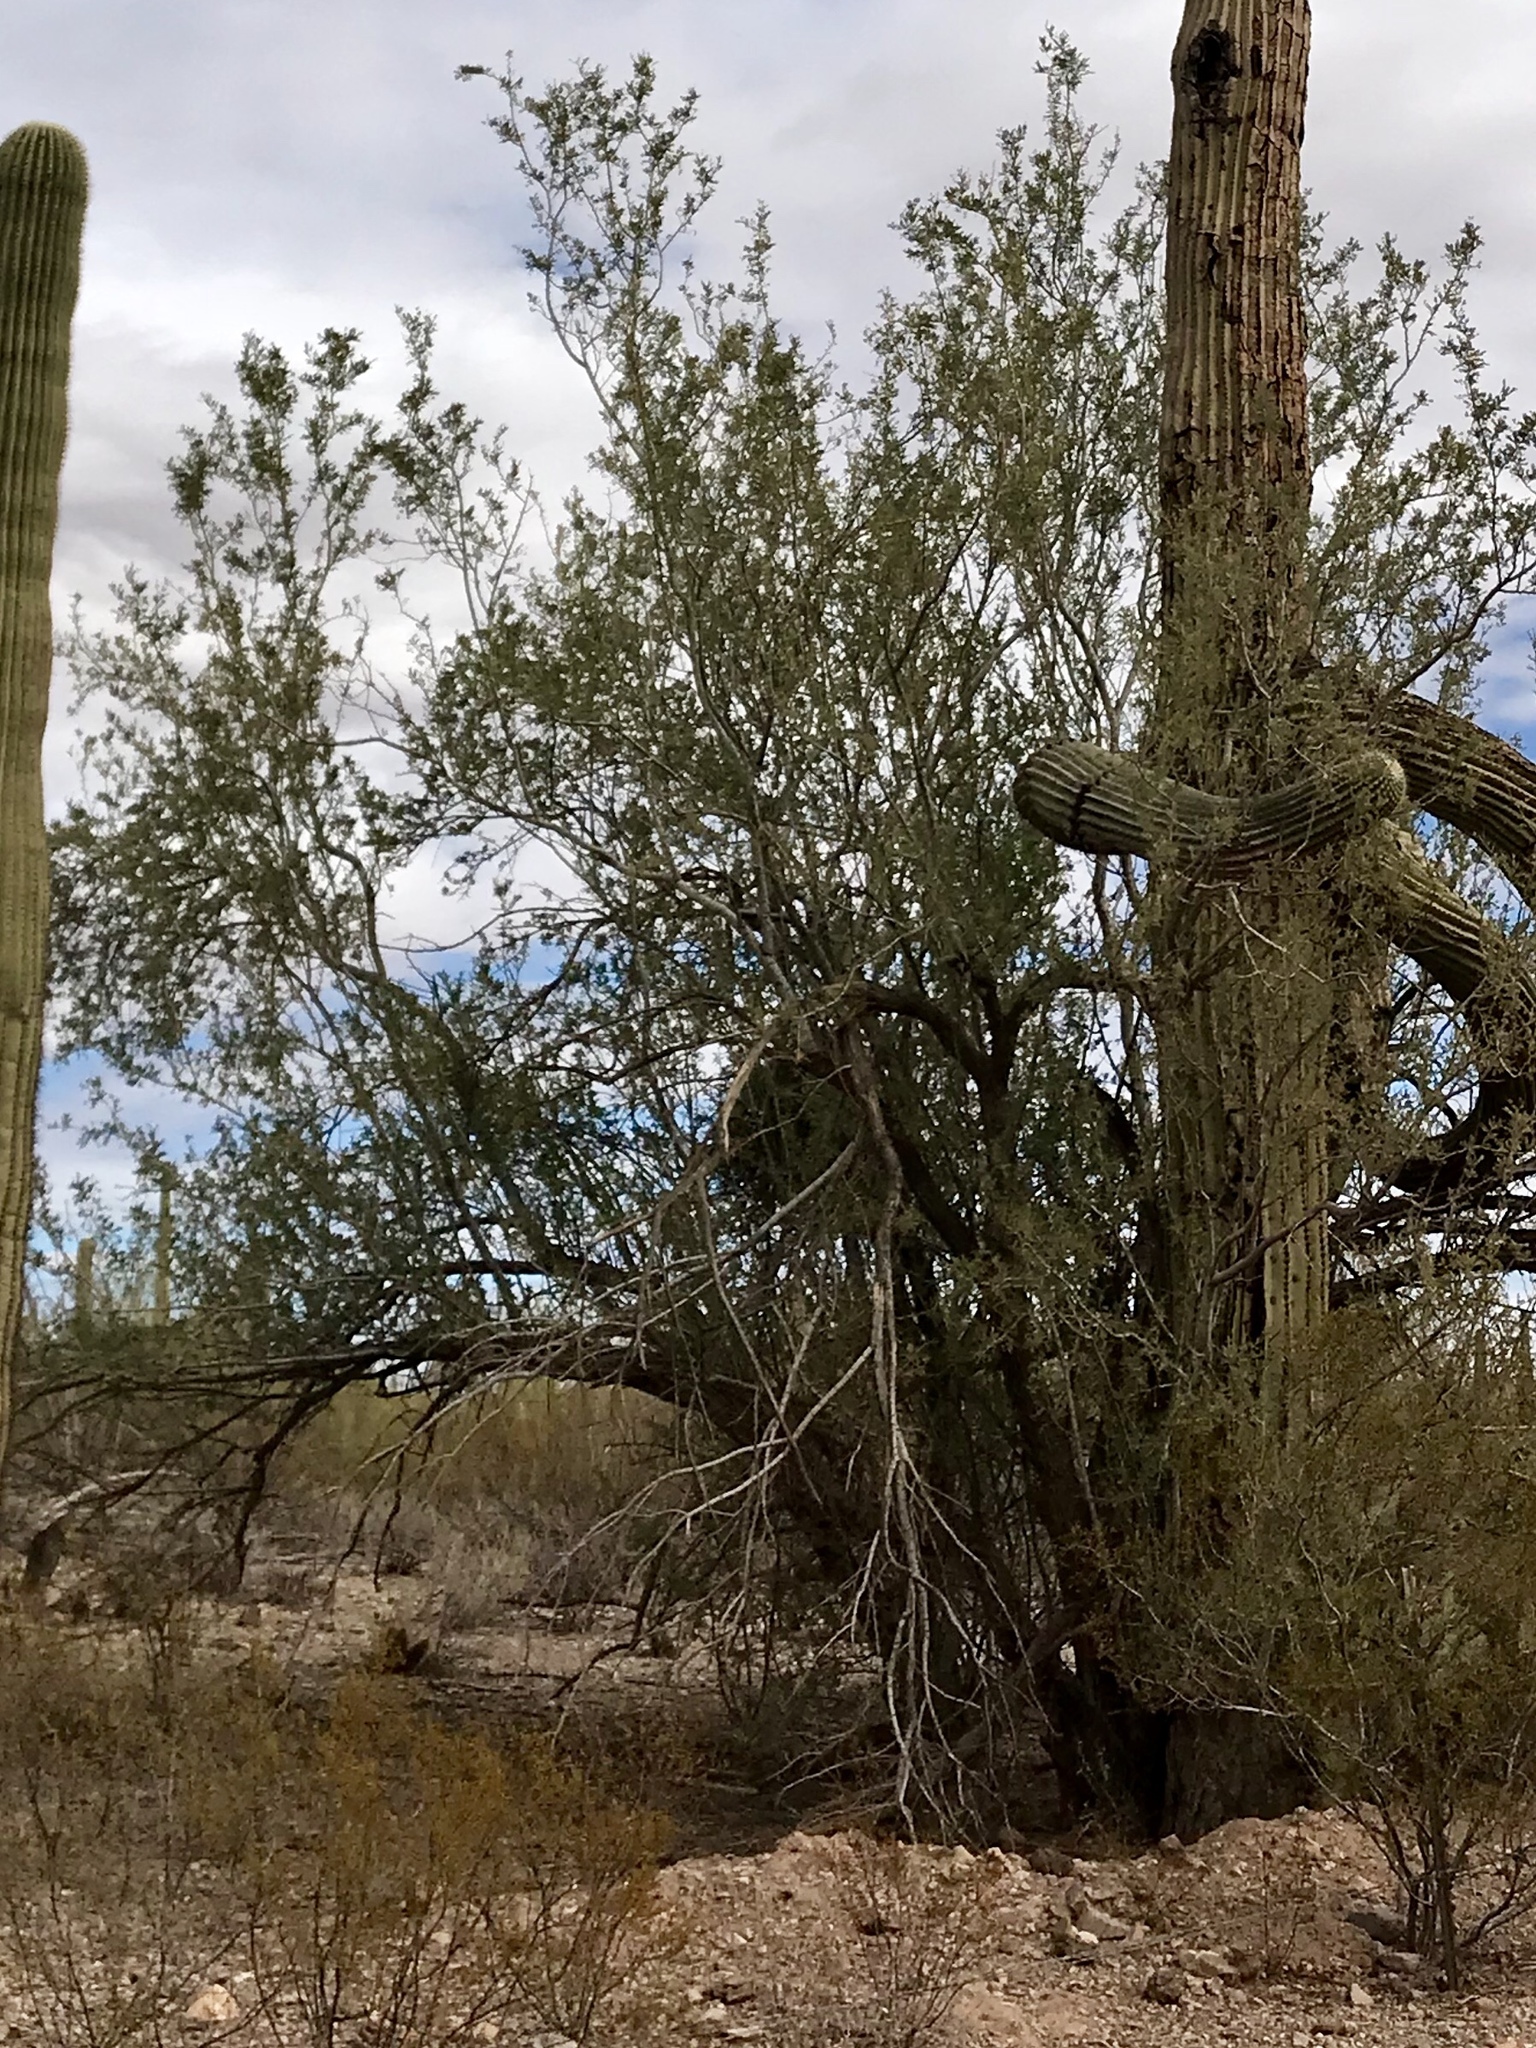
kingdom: Plantae
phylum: Tracheophyta
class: Magnoliopsida
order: Fabales
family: Fabaceae
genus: Olneya
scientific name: Olneya tesota
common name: Desert ironwood
